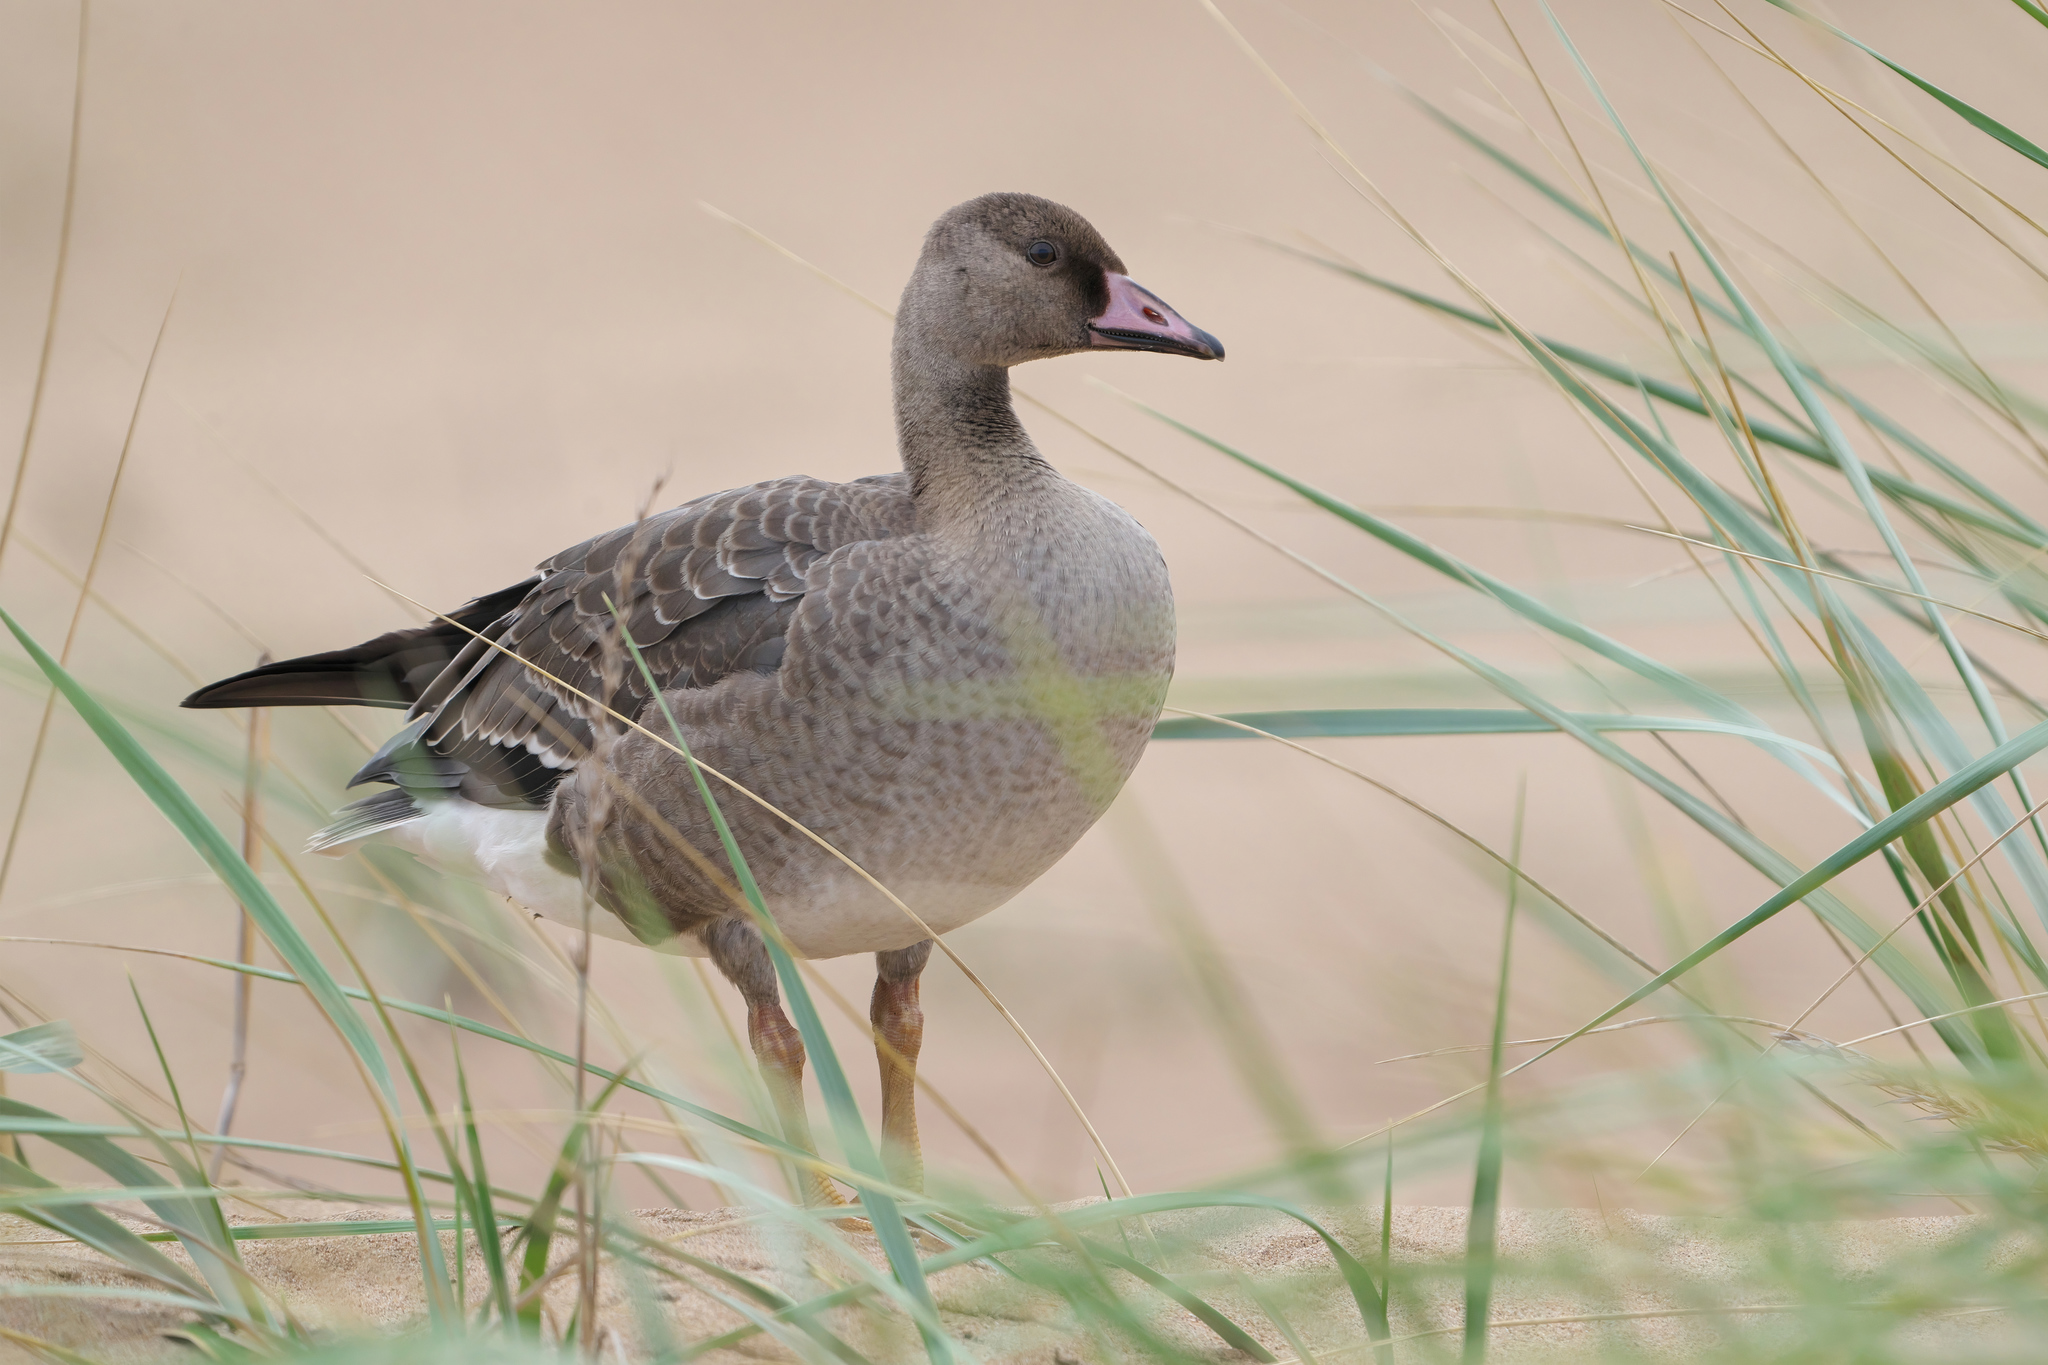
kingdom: Animalia
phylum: Chordata
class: Aves
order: Anseriformes
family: Anatidae
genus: Anser
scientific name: Anser albifrons
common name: Greater white-fronted goose
